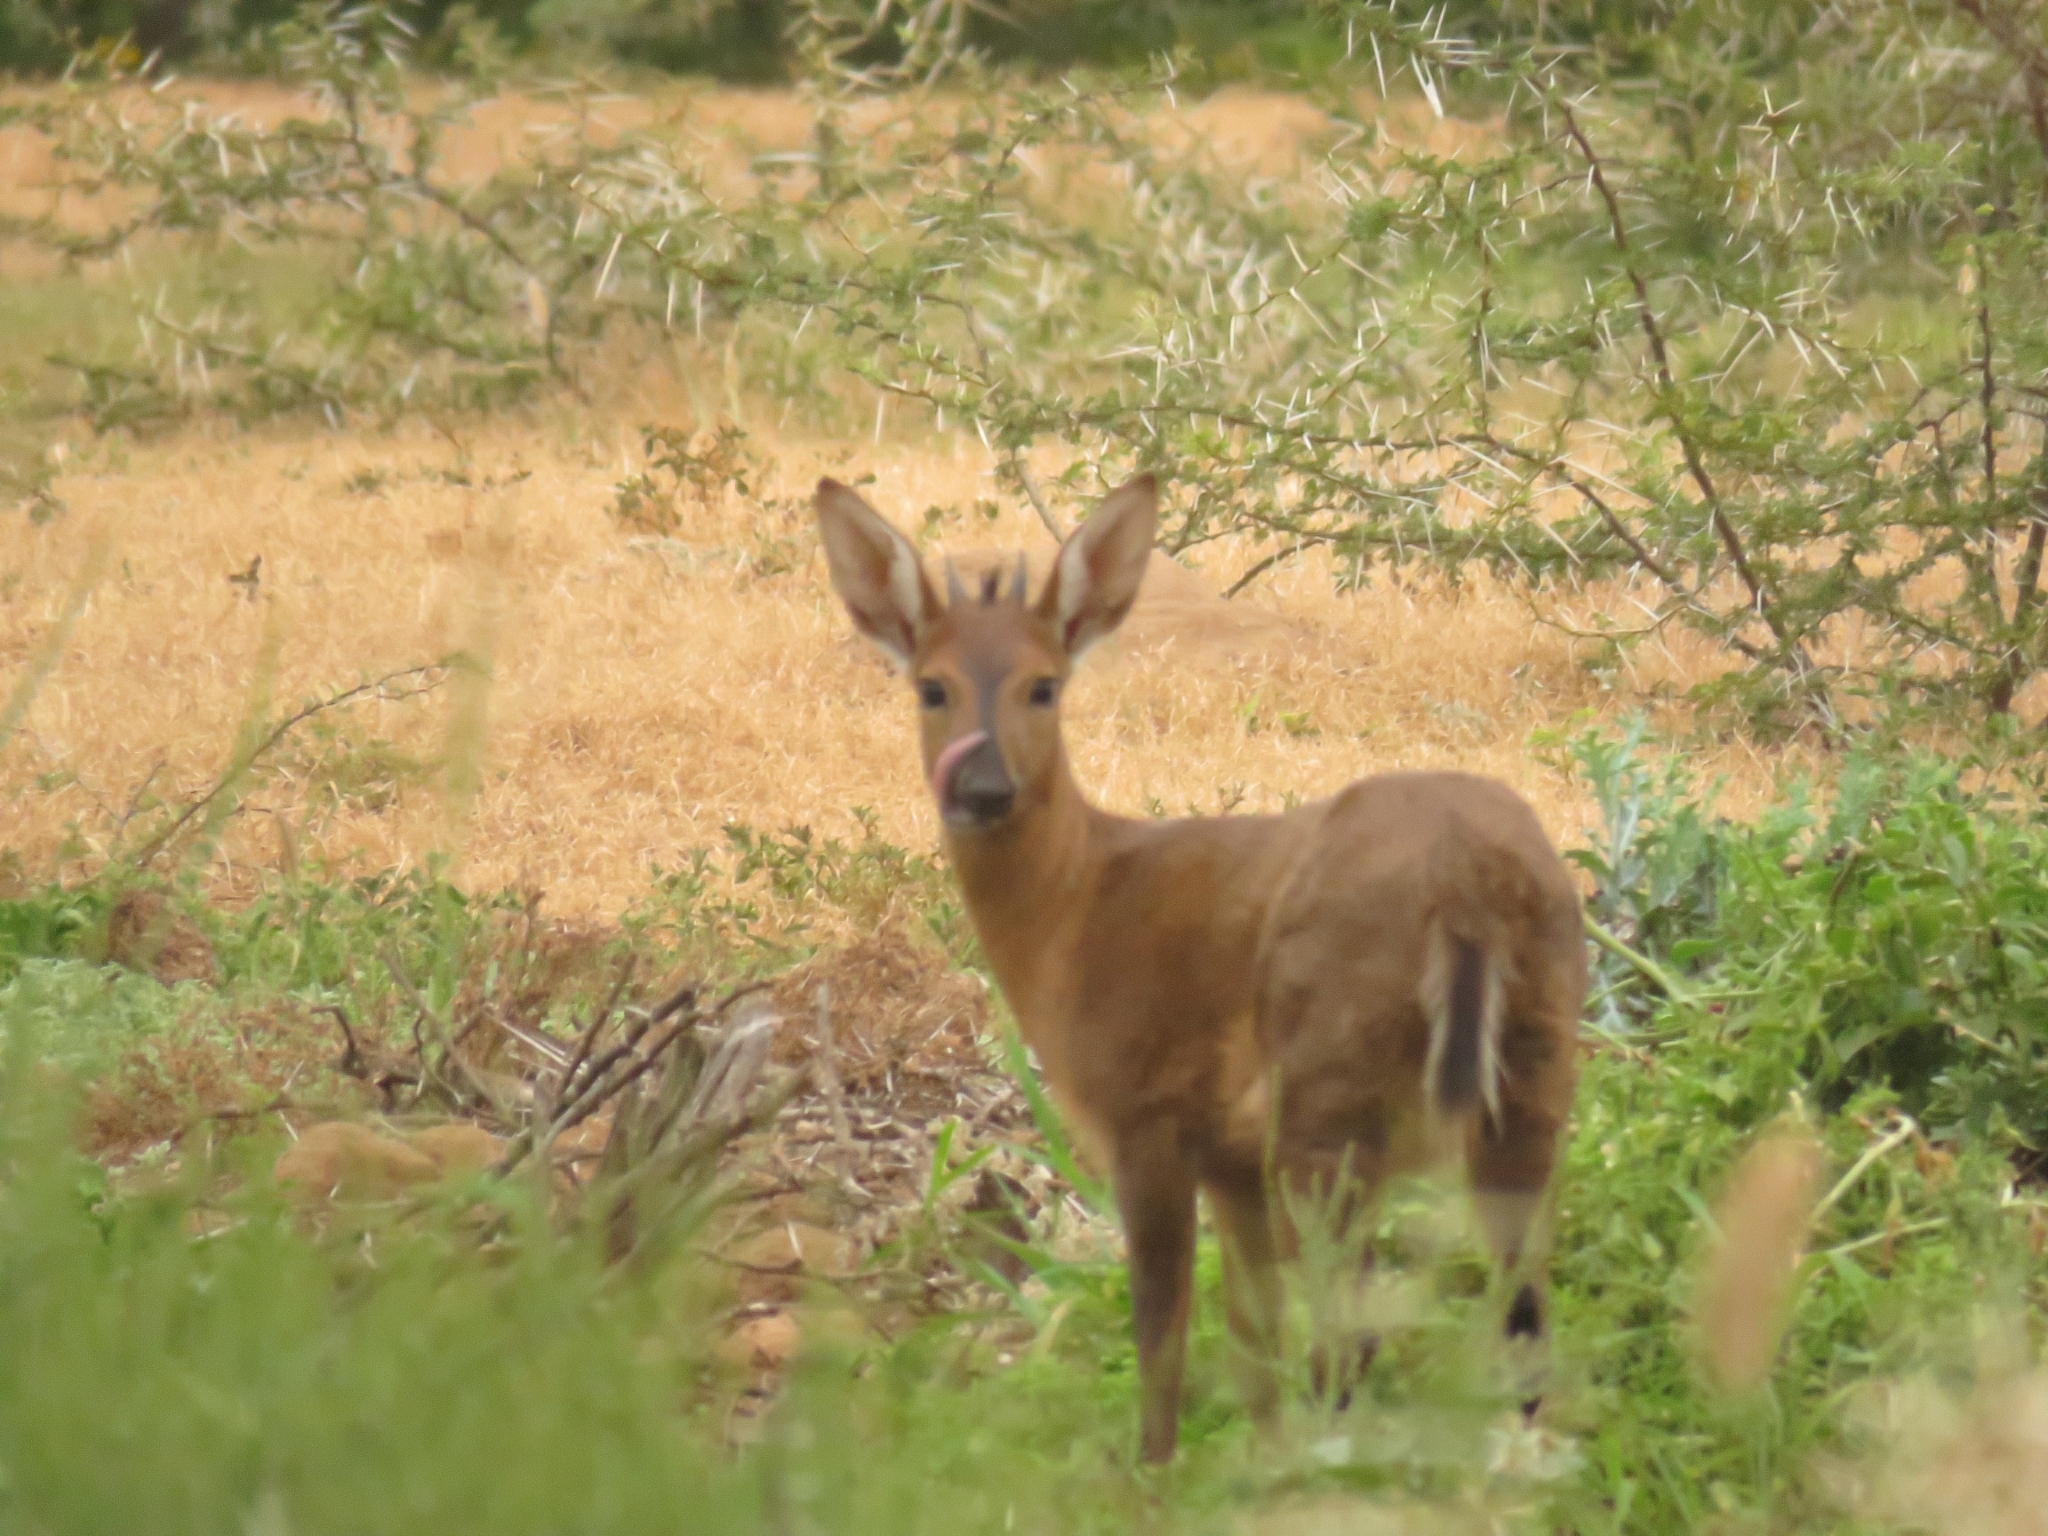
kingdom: Animalia
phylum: Chordata
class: Mammalia
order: Artiodactyla
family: Bovidae
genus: Sylvicapra
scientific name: Sylvicapra grimmia
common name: Bush duiker
